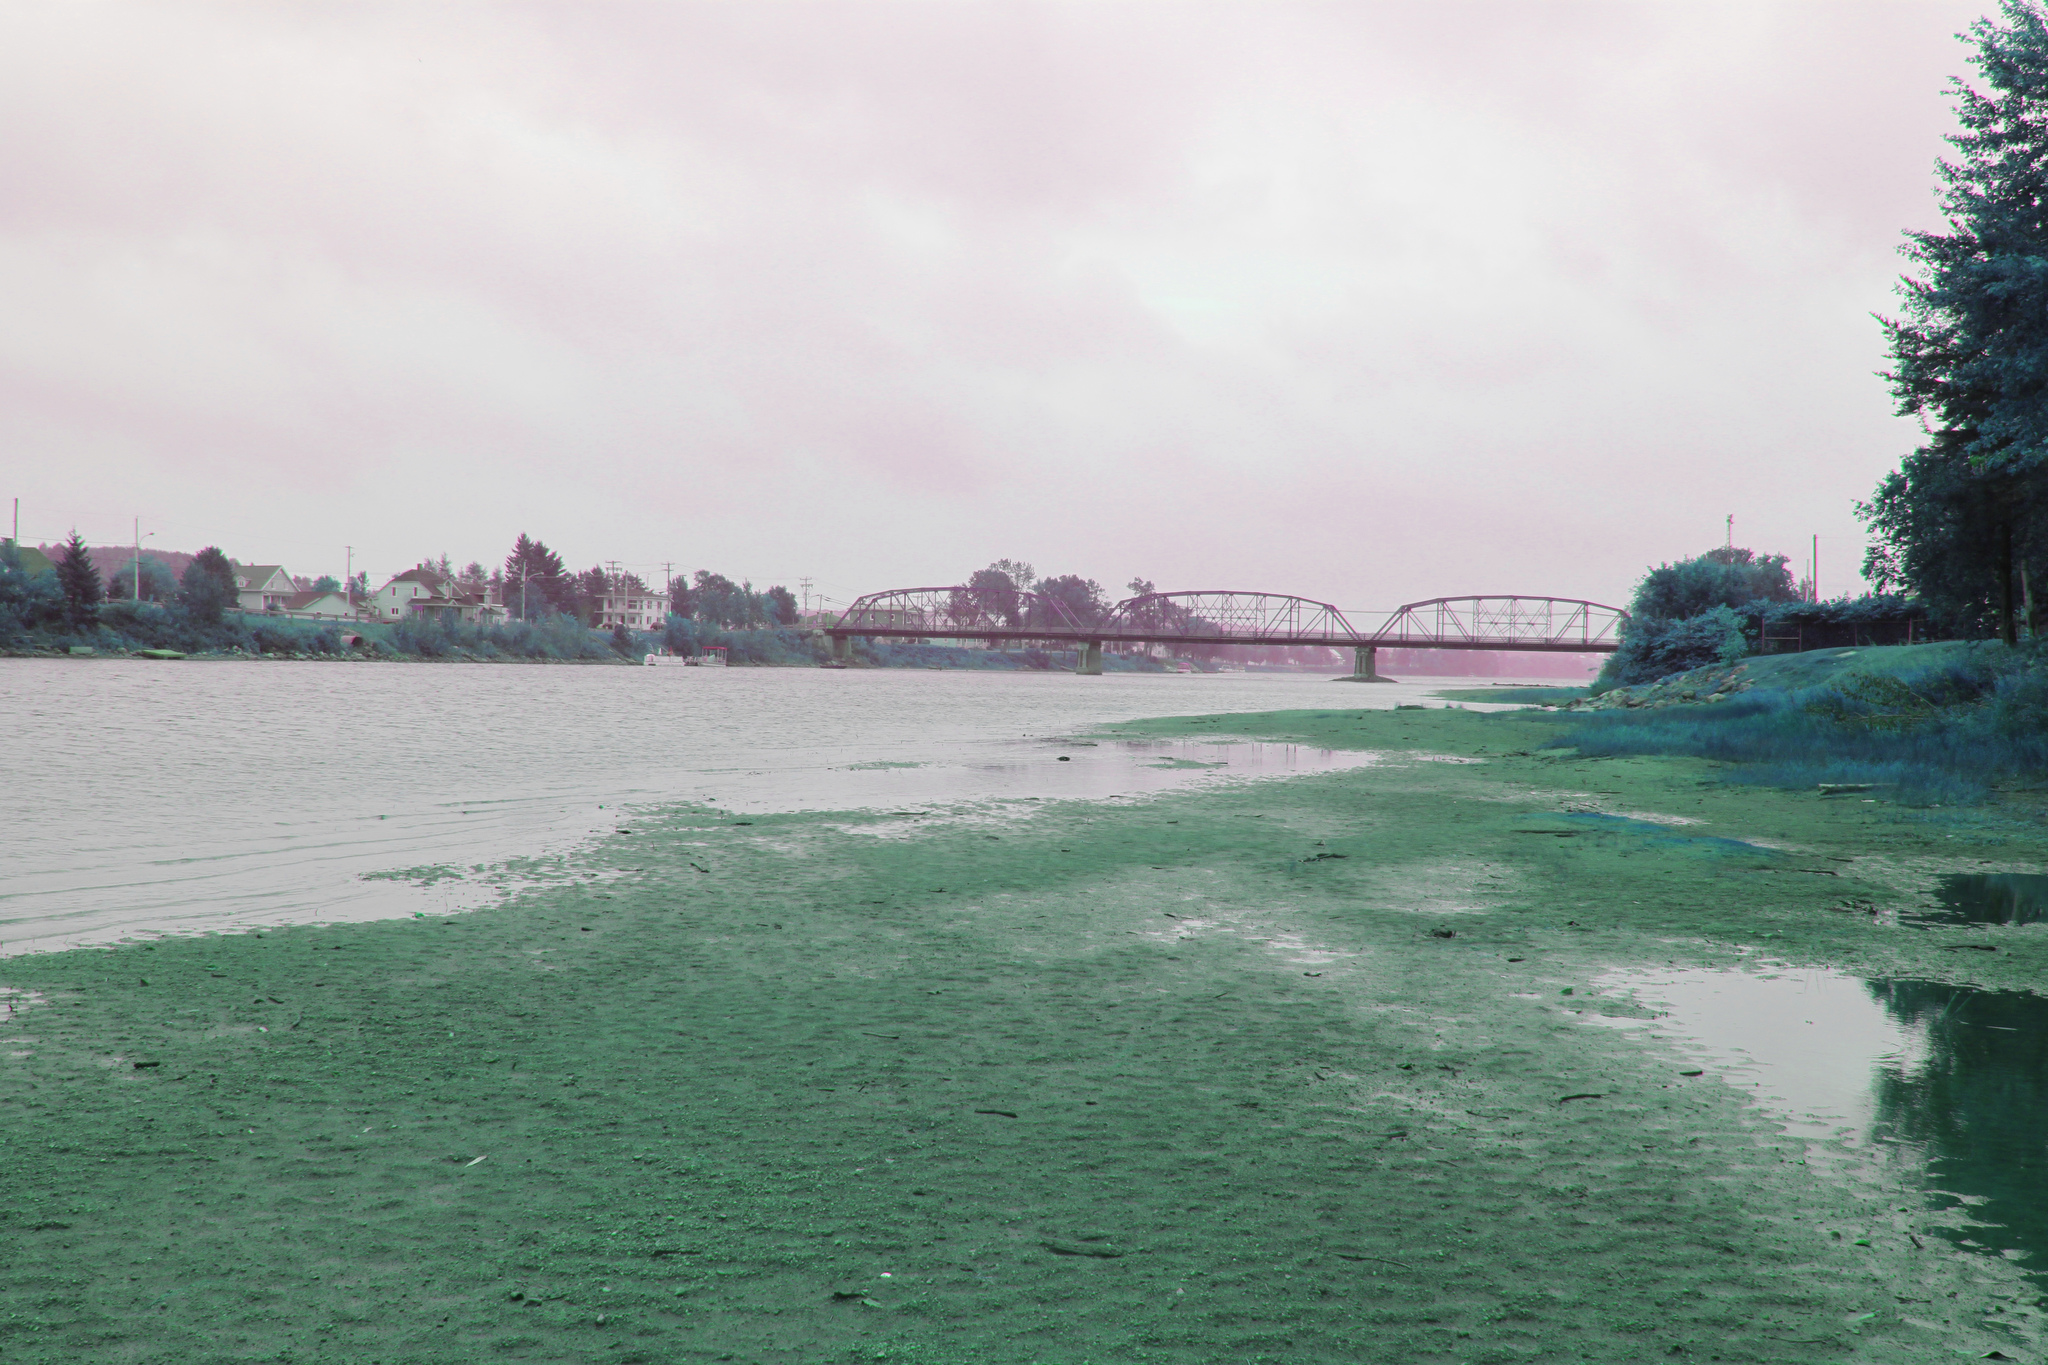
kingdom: Plantae
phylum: Tracheophyta
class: Magnoliopsida
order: Caryophyllales
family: Polygonaceae
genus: Persicaria
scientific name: Persicaria pensylvanica
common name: Pinkweed
